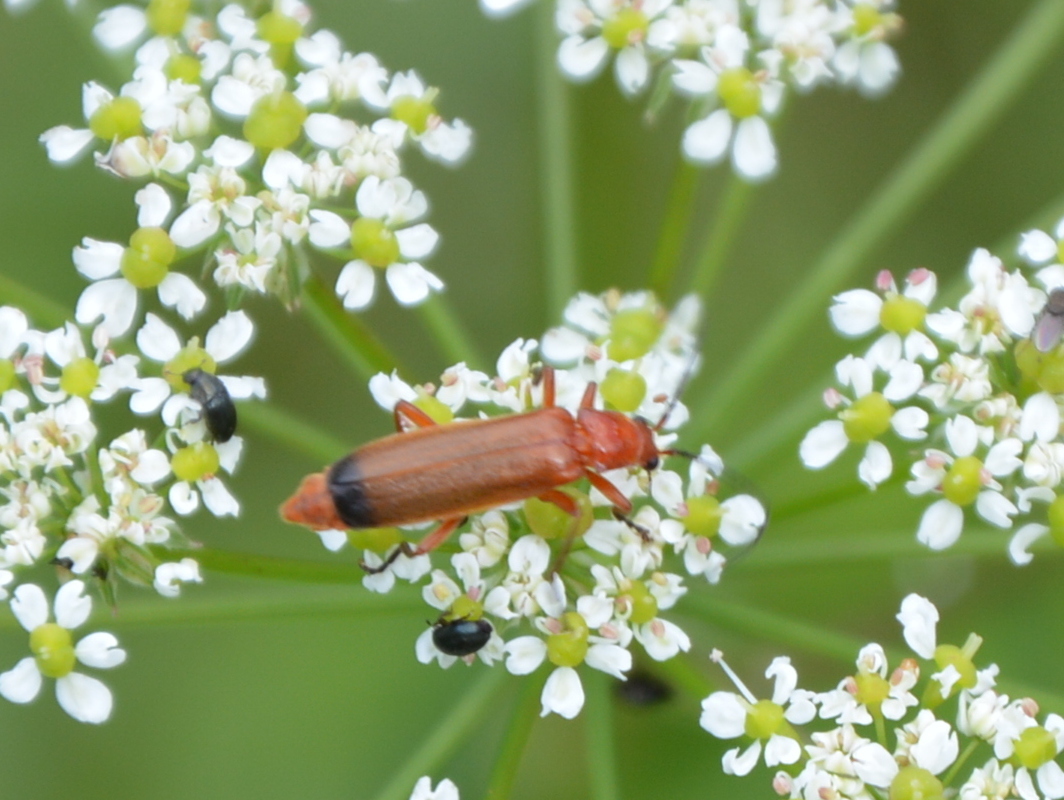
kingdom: Animalia
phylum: Arthropoda
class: Insecta
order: Coleoptera
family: Cantharidae
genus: Rhagonycha
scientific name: Rhagonycha fulva
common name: Common red soldier beetle
